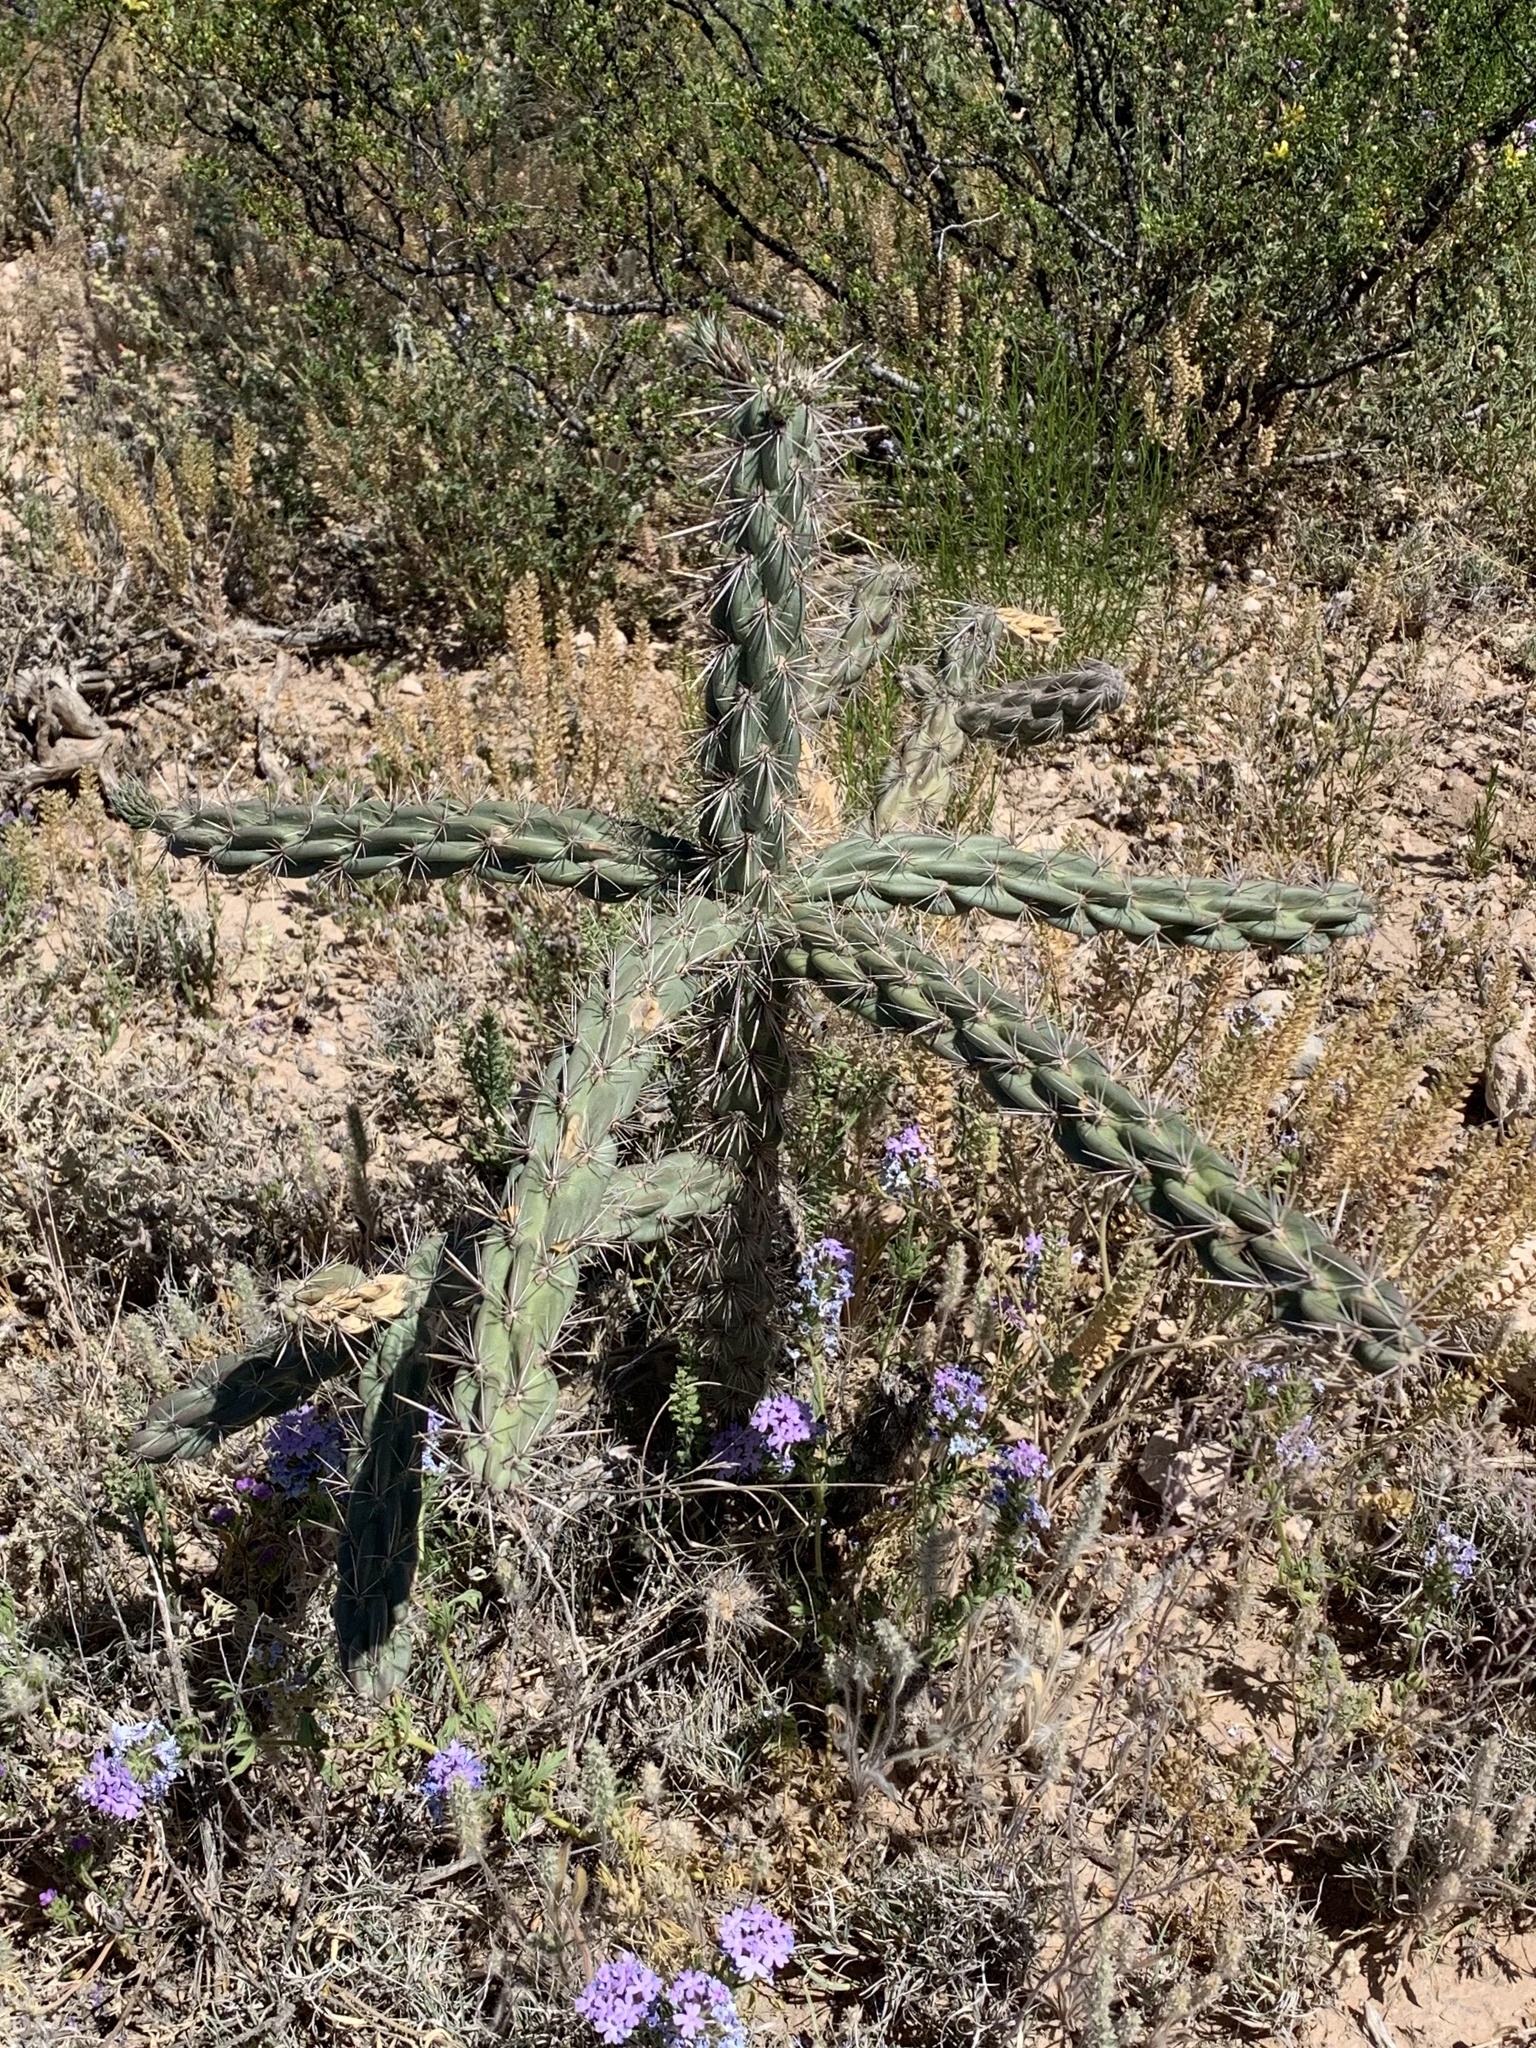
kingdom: Plantae
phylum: Tracheophyta
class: Magnoliopsida
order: Caryophyllales
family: Cactaceae
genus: Cylindropuntia
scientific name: Cylindropuntia imbricata
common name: Candelabrum cactus
